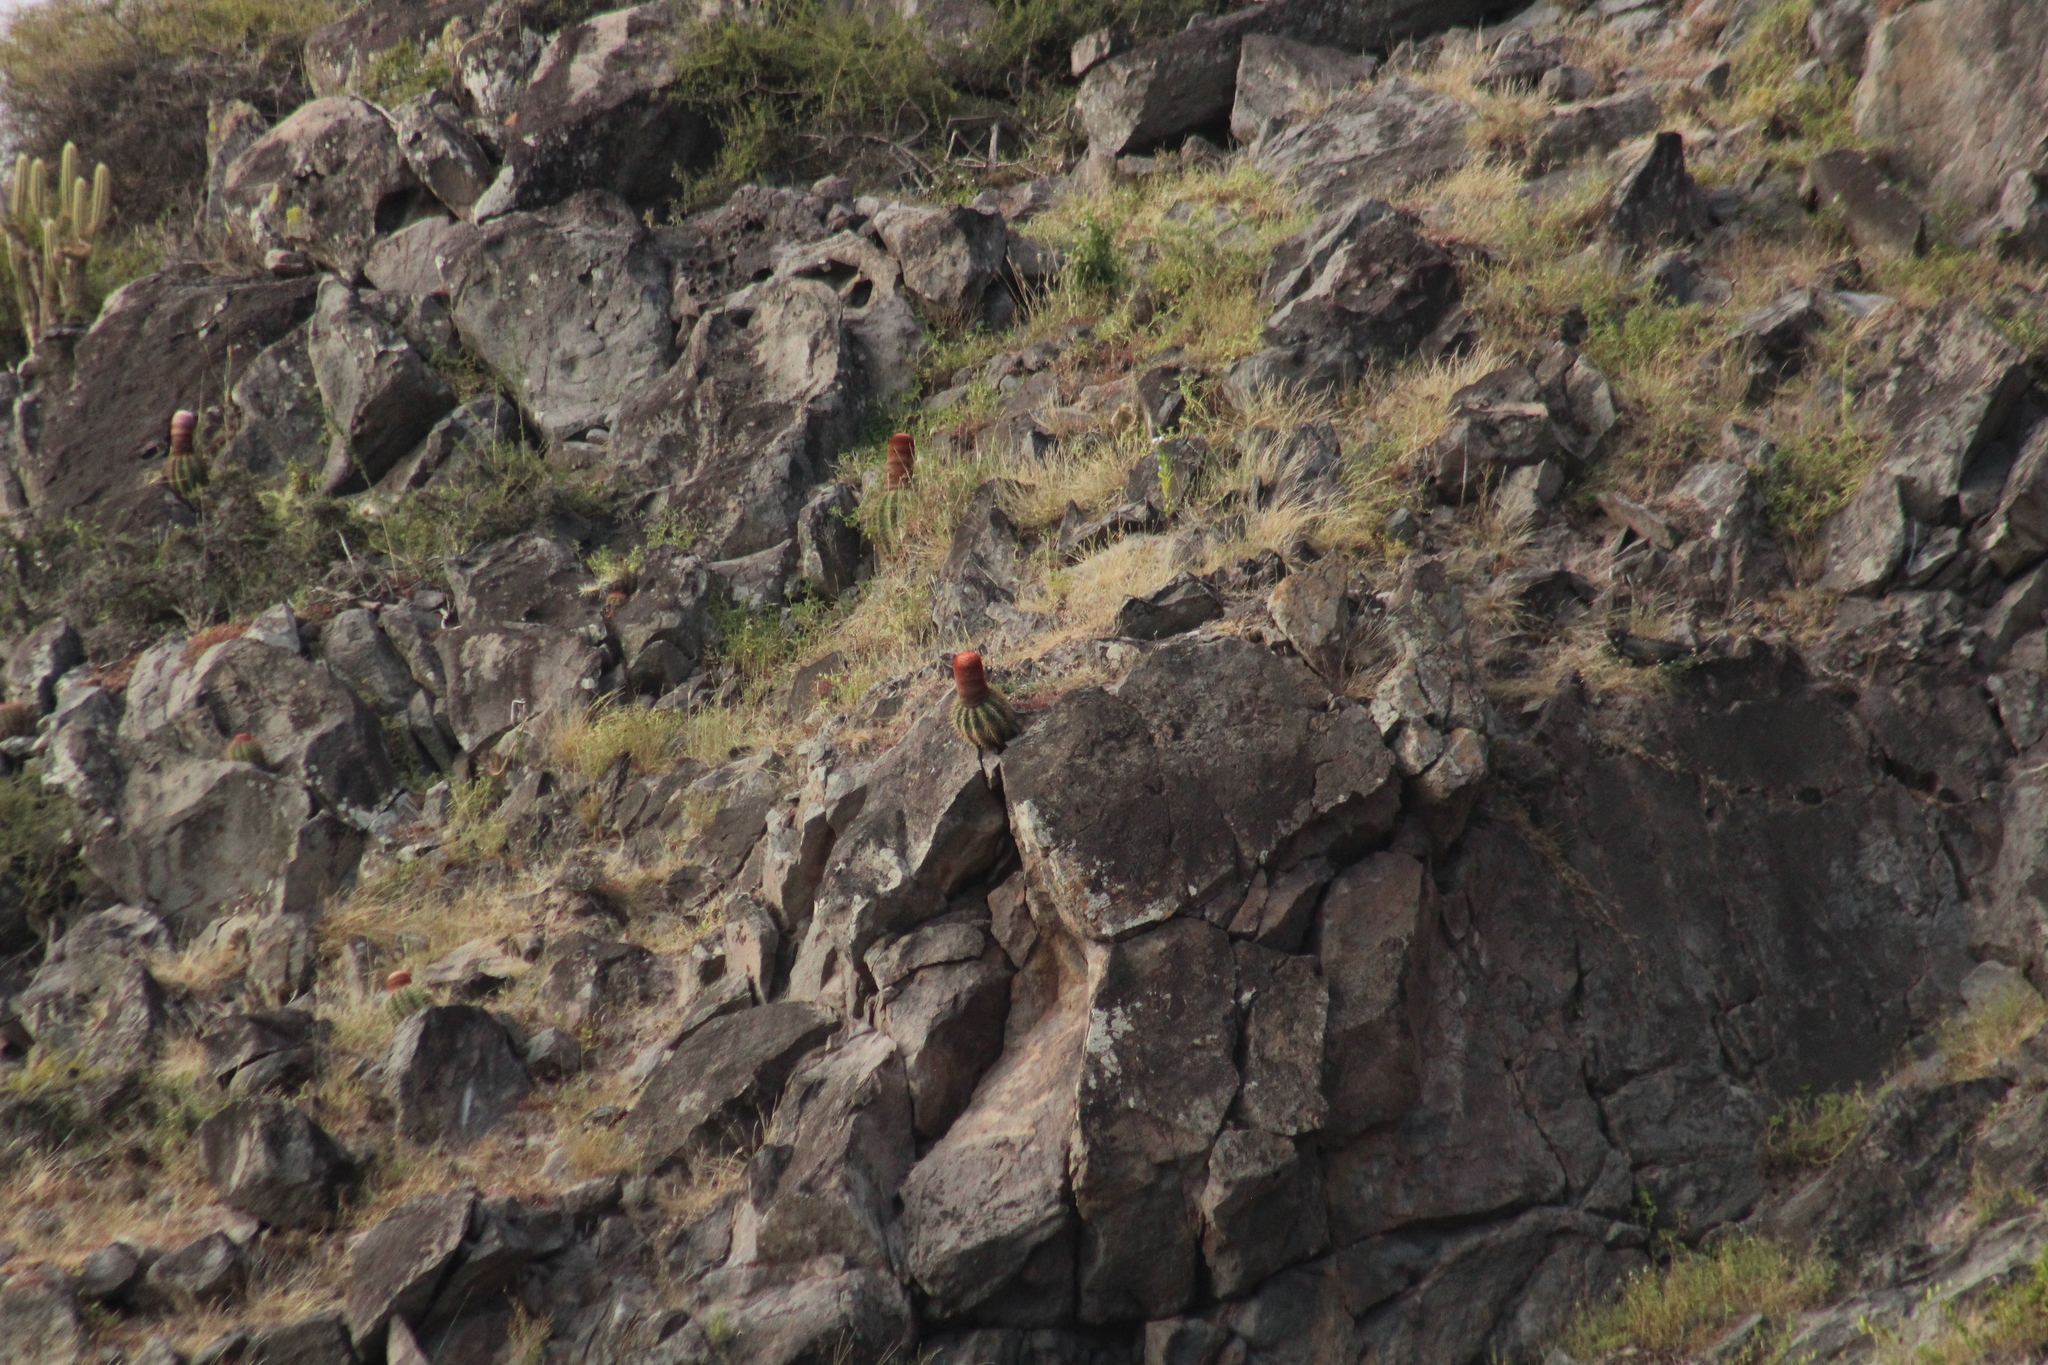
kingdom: Plantae
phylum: Tracheophyta
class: Magnoliopsida
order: Caryophyllales
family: Cactaceae
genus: Melocactus
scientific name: Melocactus intortus
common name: Barrel cactus
